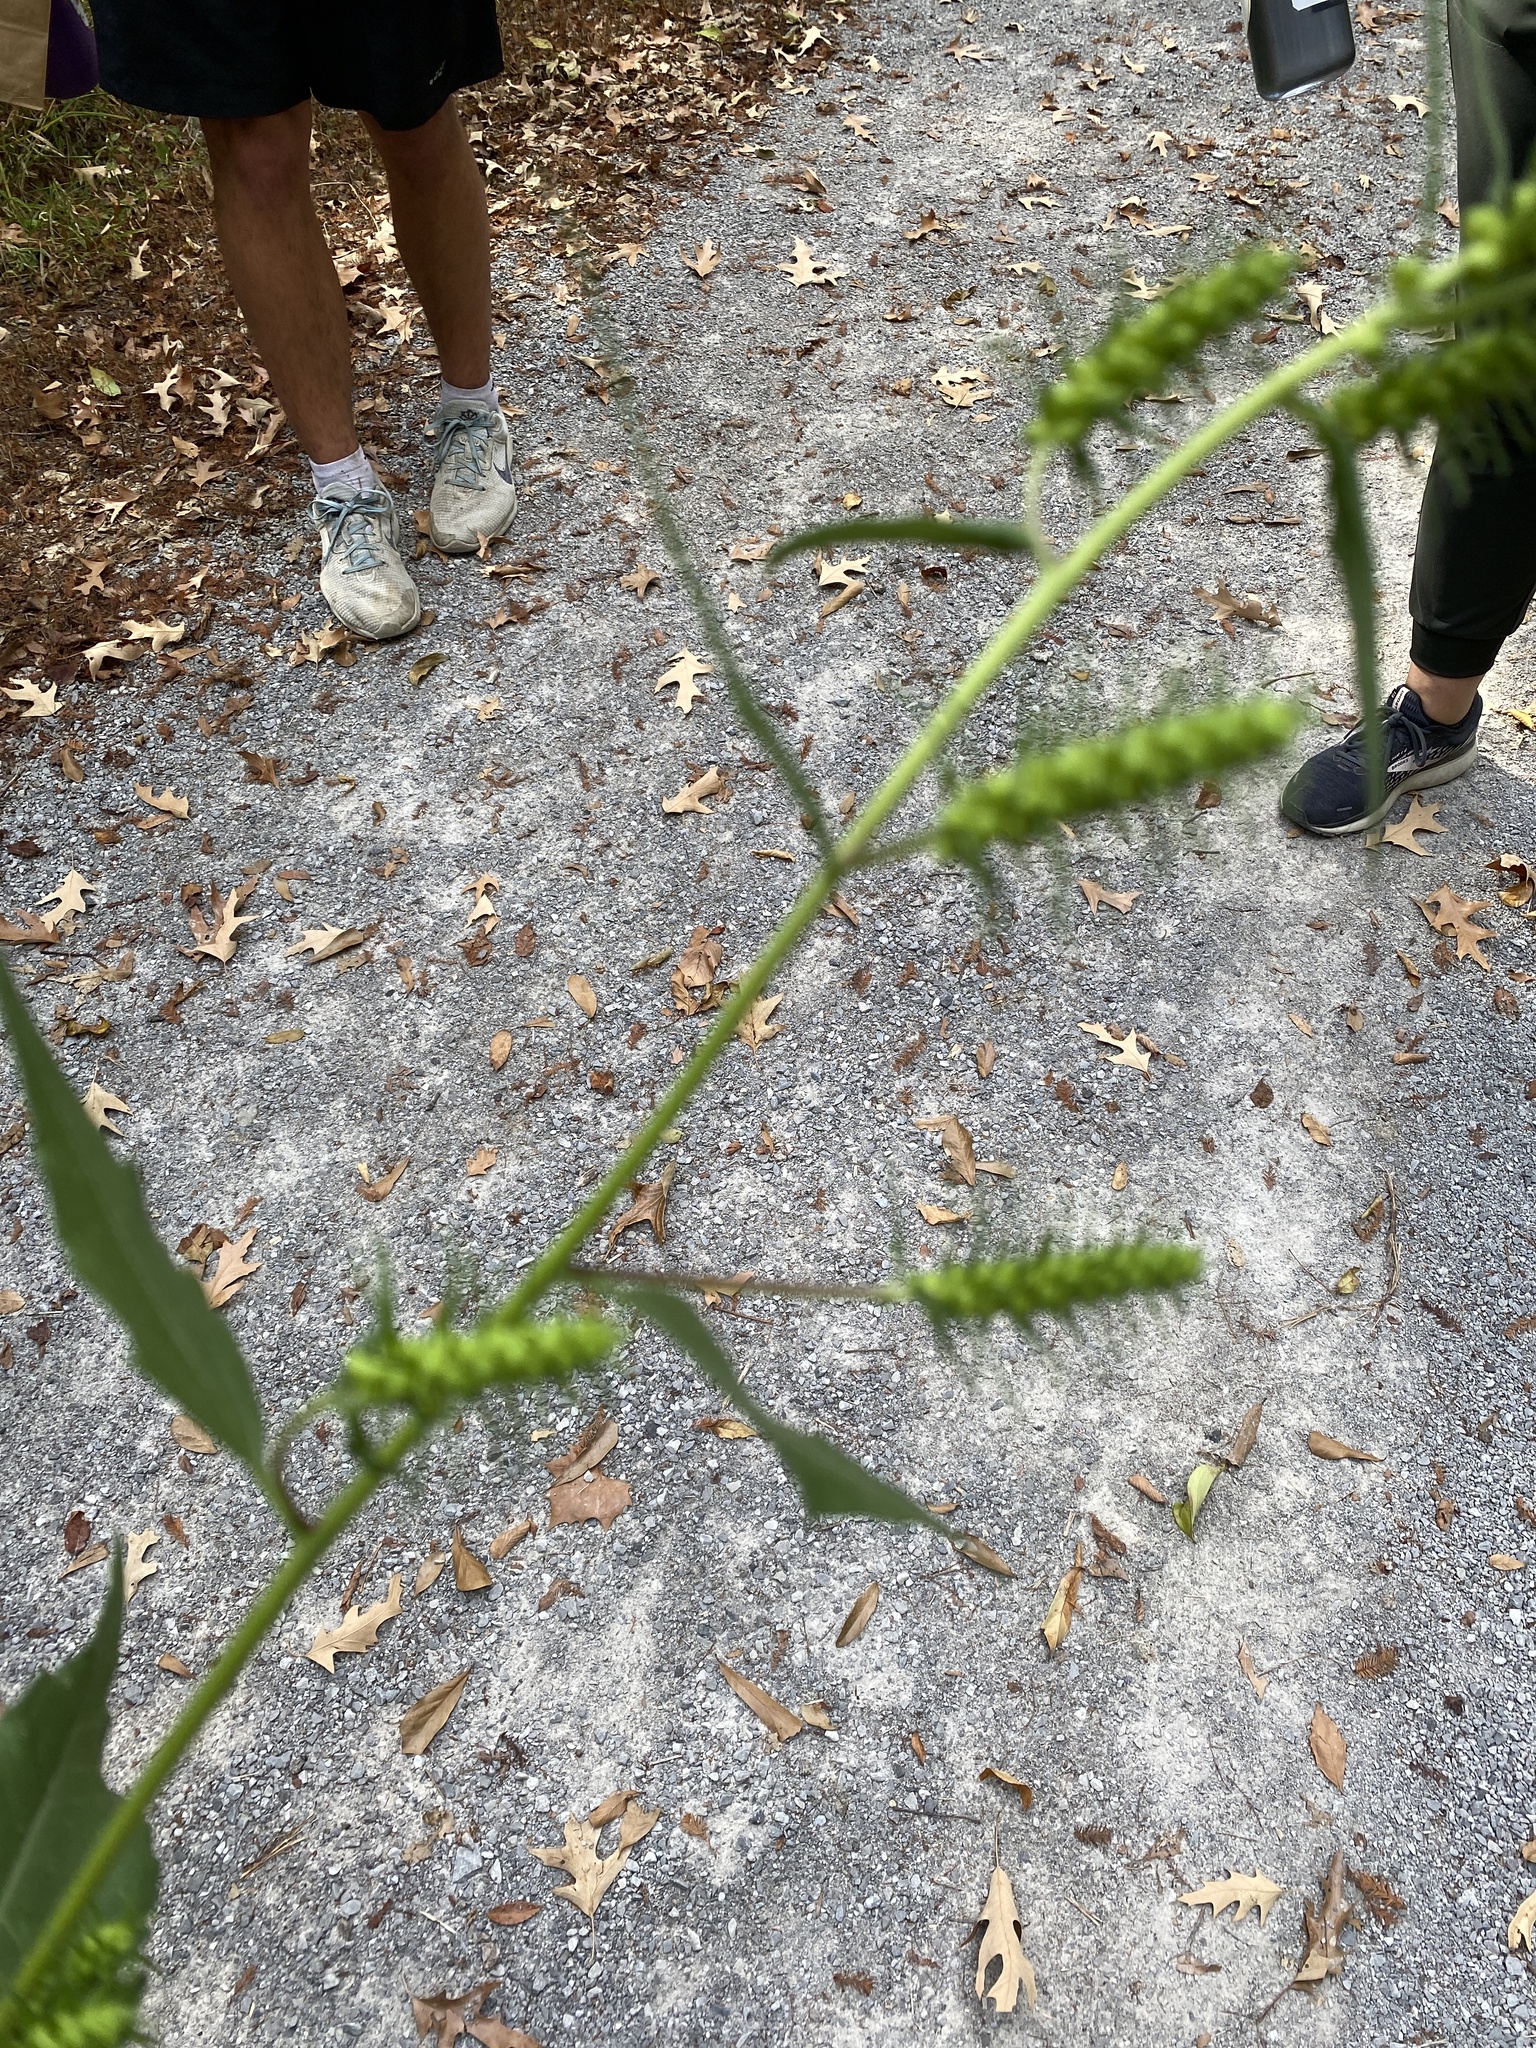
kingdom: Plantae
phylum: Tracheophyta
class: Magnoliopsida
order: Asterales
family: Asteraceae
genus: Iva
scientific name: Iva annua
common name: Marsh-elder
